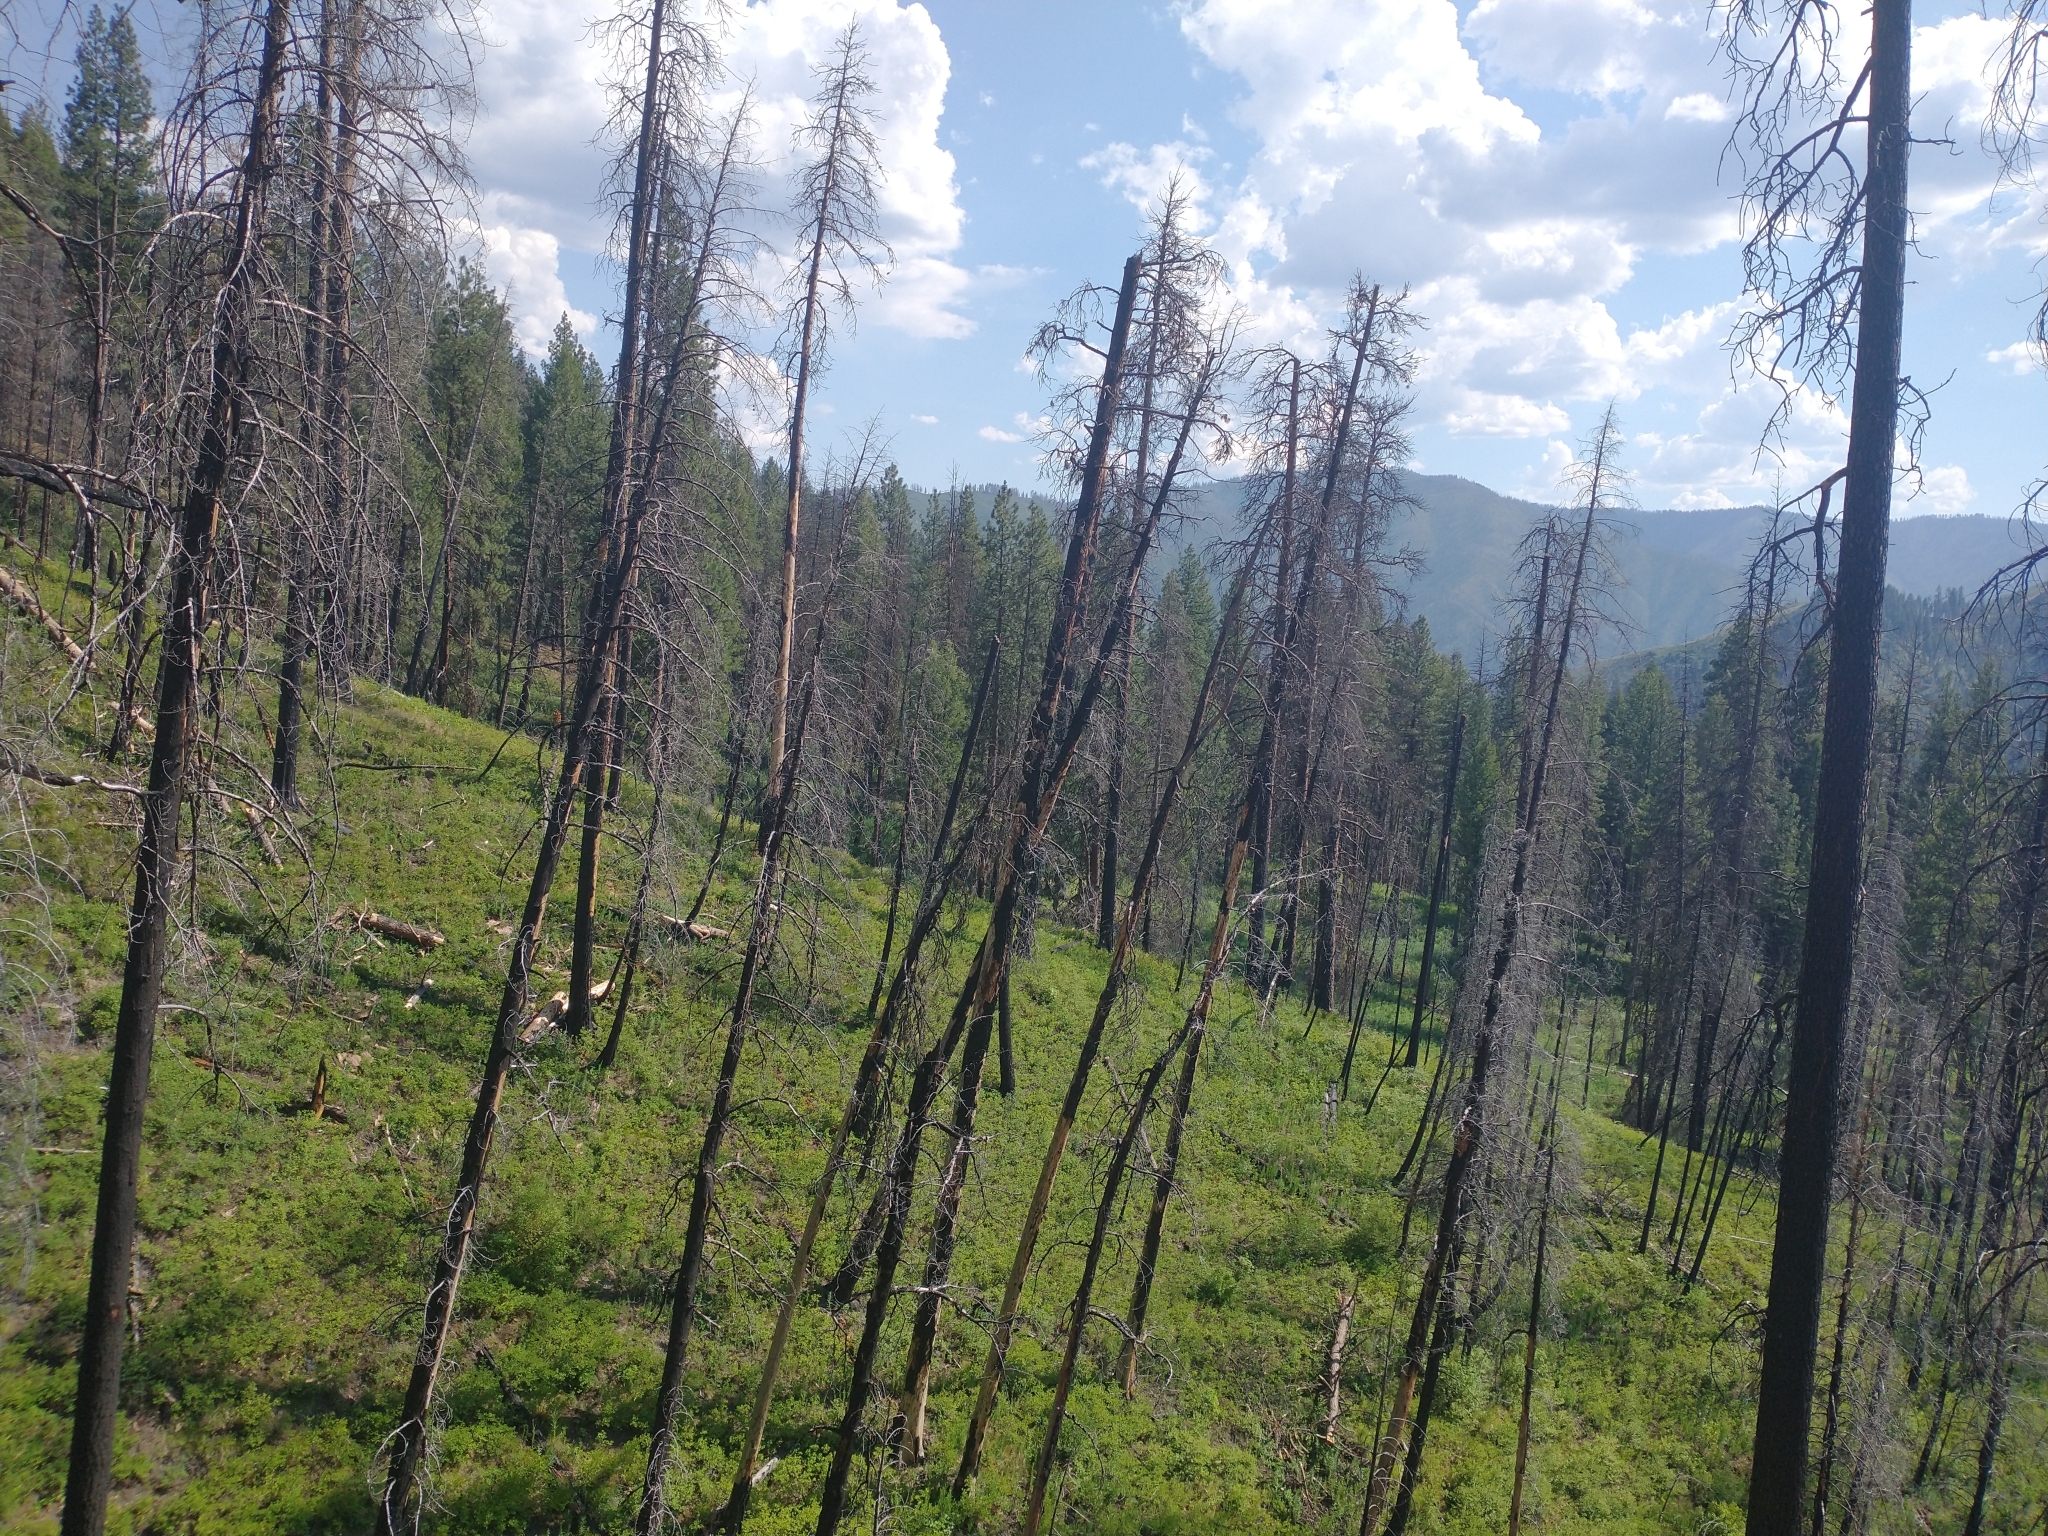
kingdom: Plantae
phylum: Tracheophyta
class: Pinopsida
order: Pinales
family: Pinaceae
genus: Pinus
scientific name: Pinus ponderosa
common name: Western yellow-pine
